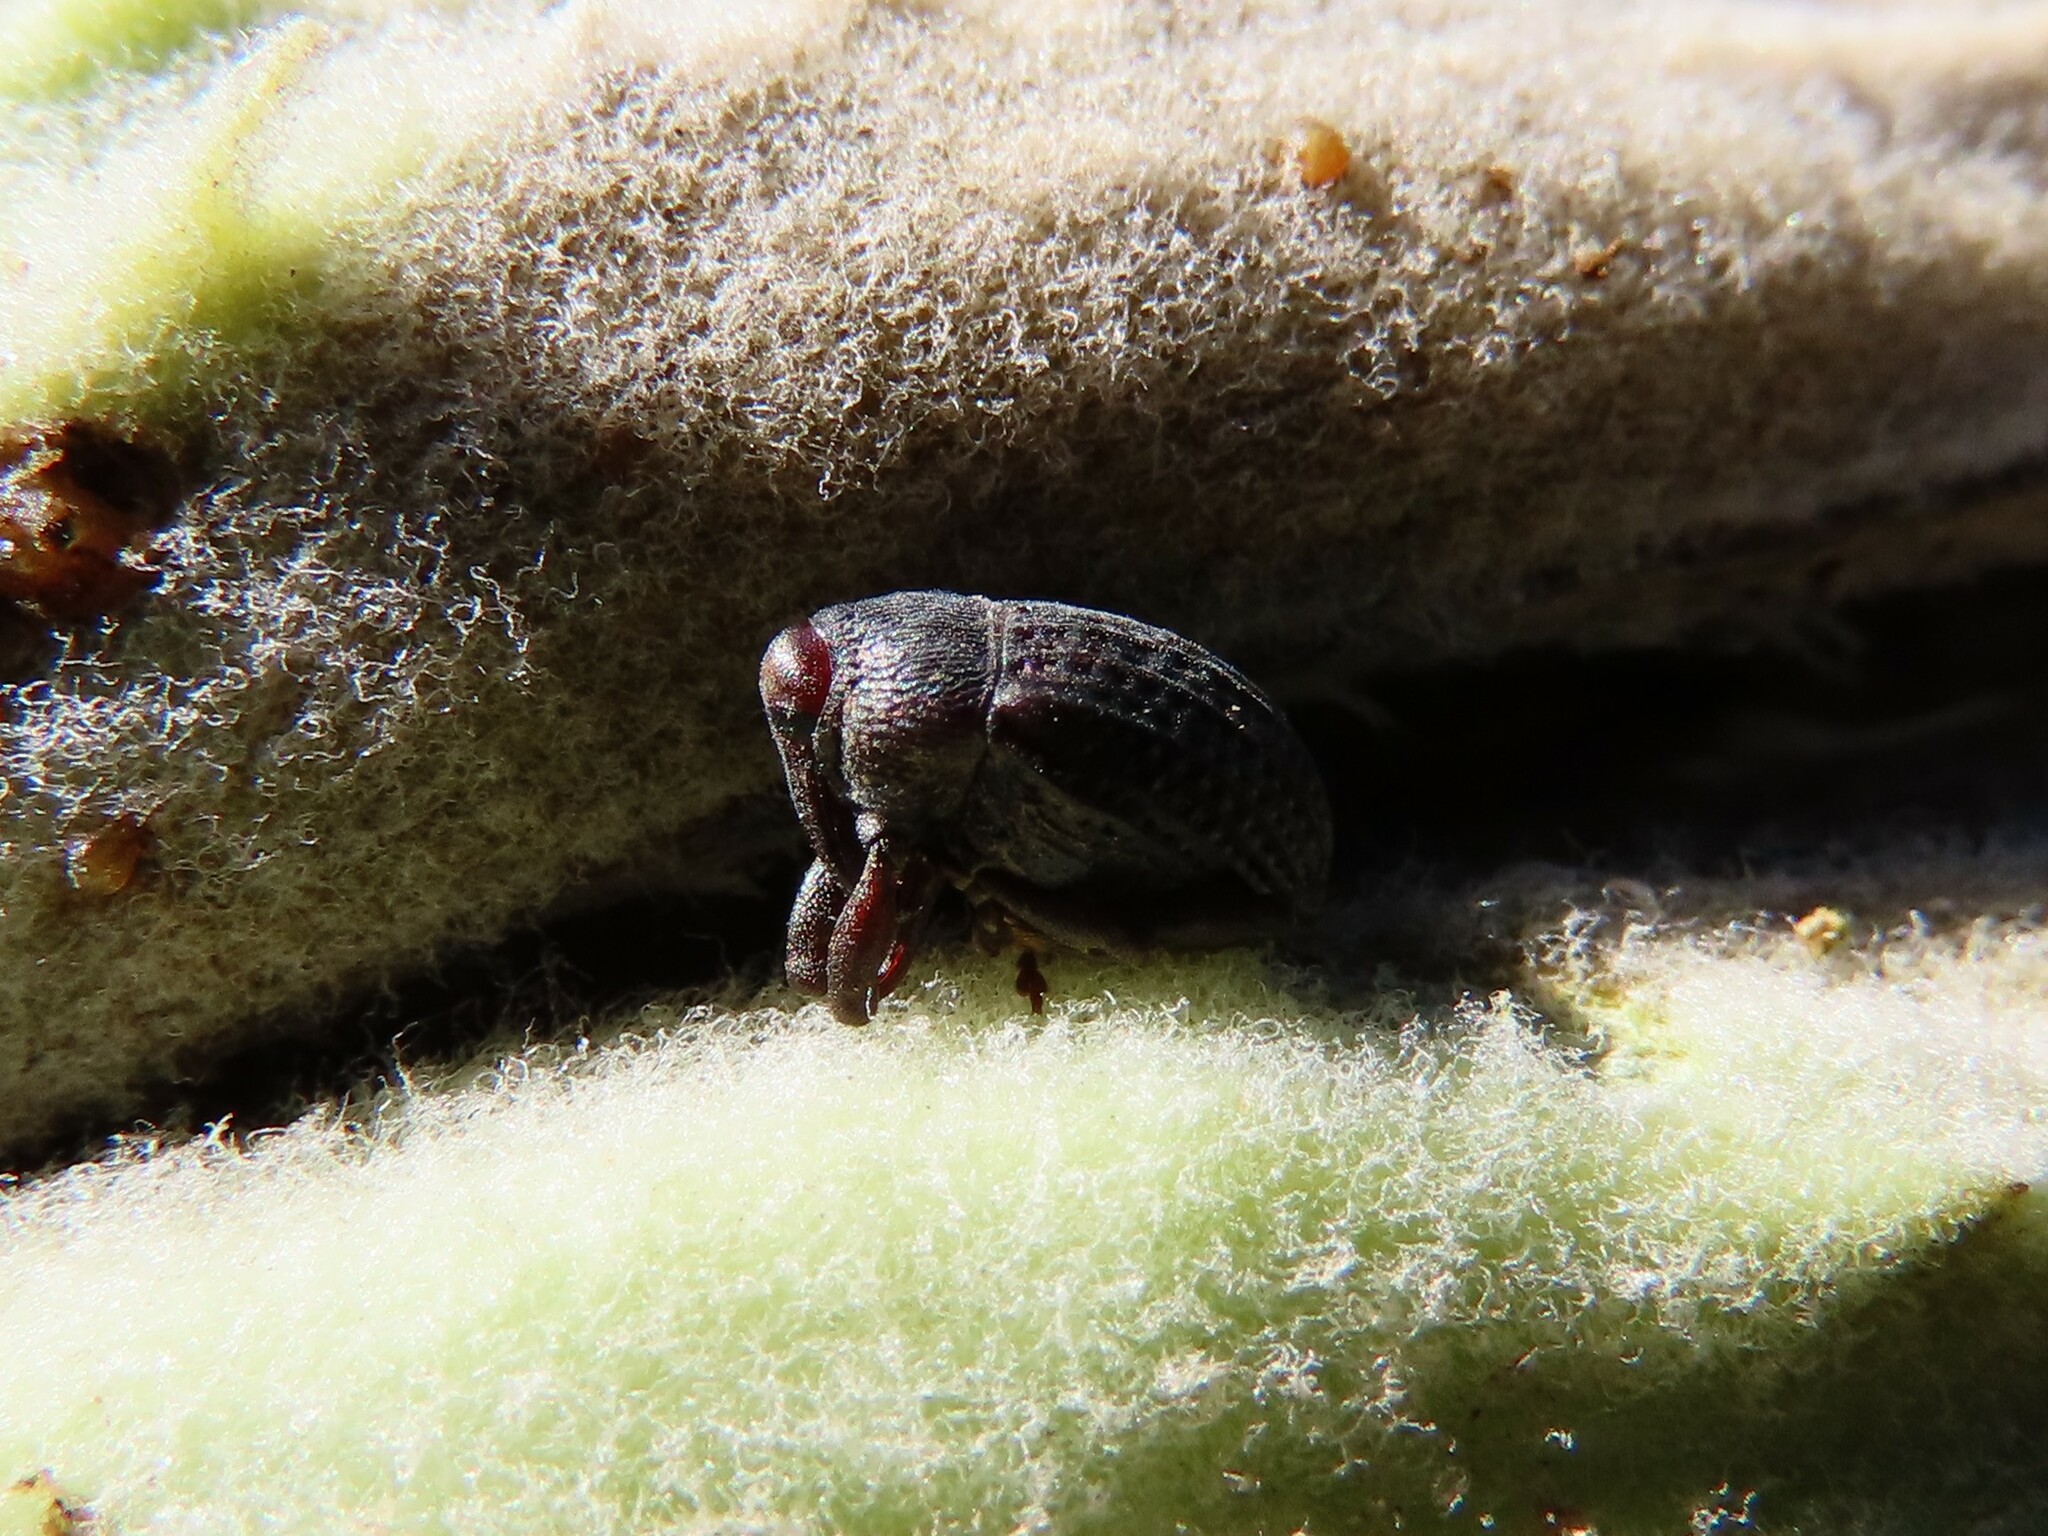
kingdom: Animalia
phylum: Arthropoda
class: Insecta
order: Coleoptera
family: Curculionidae
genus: Rhyssomatus
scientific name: Rhyssomatus lineaticollis
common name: Milkweed stem weevil
